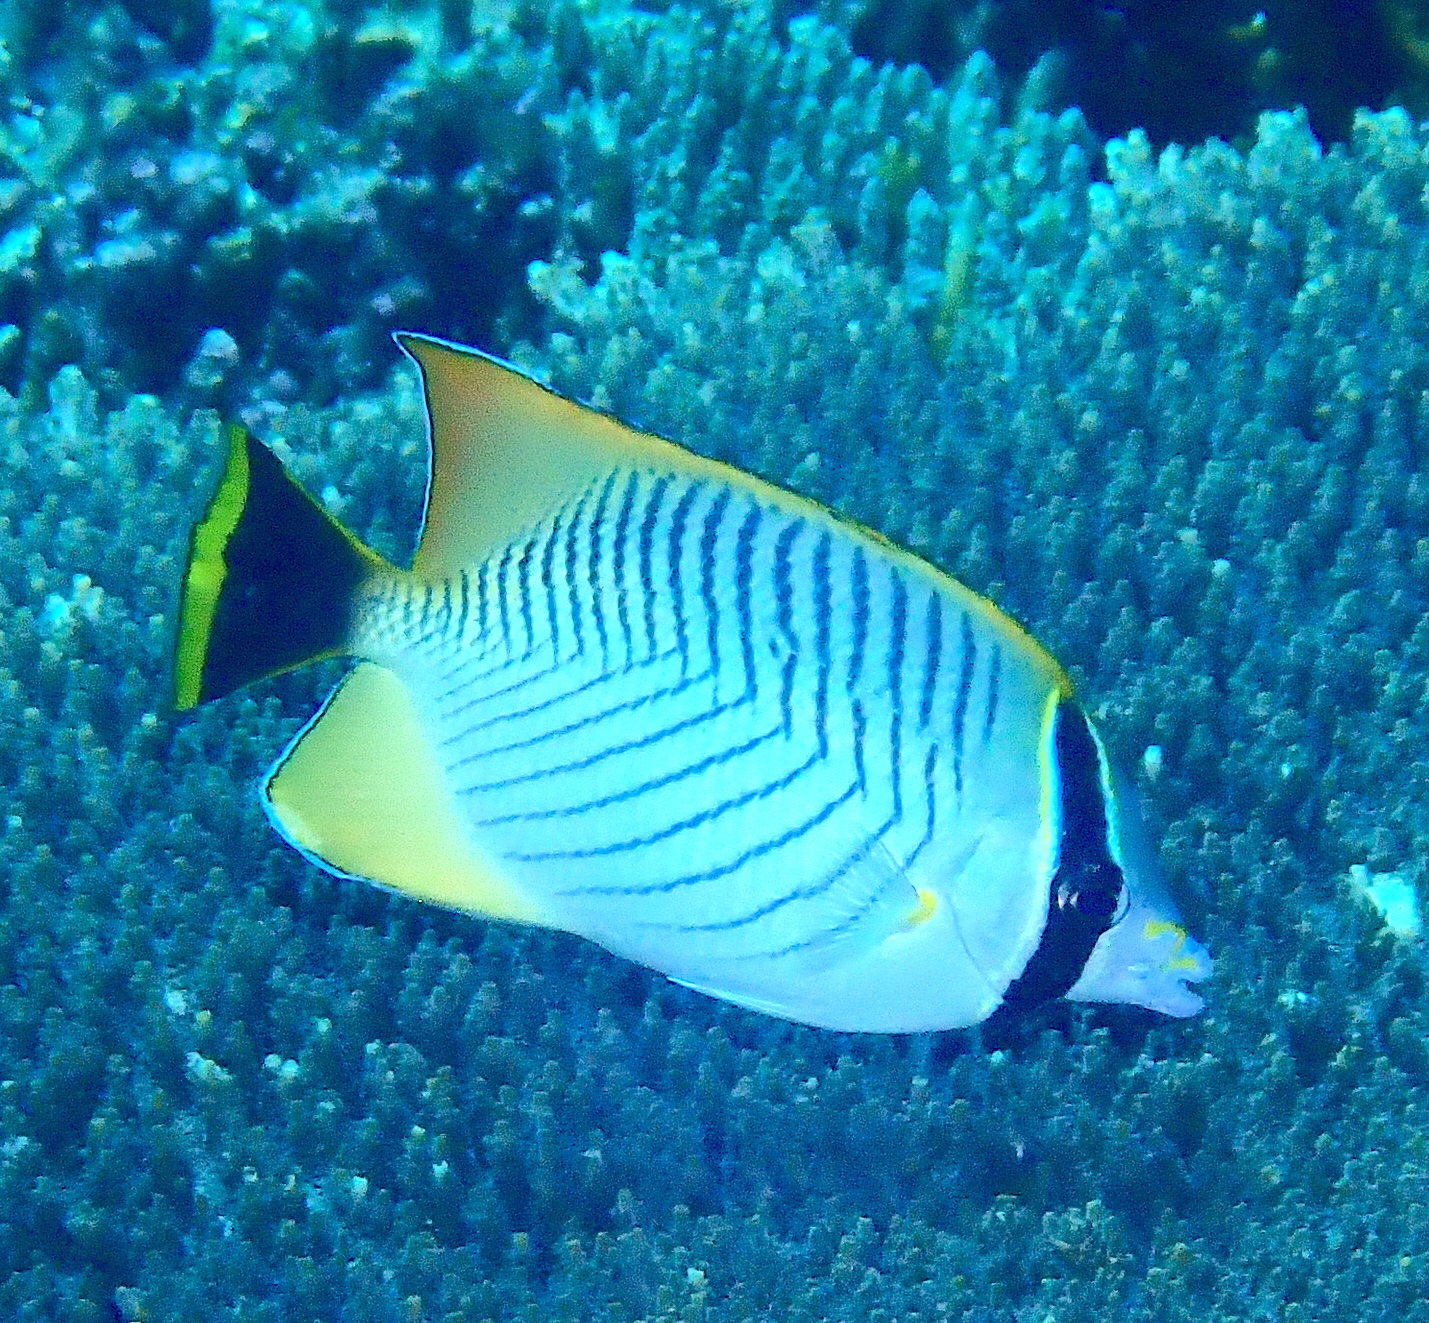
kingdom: Animalia
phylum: Chordata
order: Perciformes
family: Chaetodontidae
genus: Chaetodon
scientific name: Chaetodon trifascialis
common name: Chevroned butterflyfish
